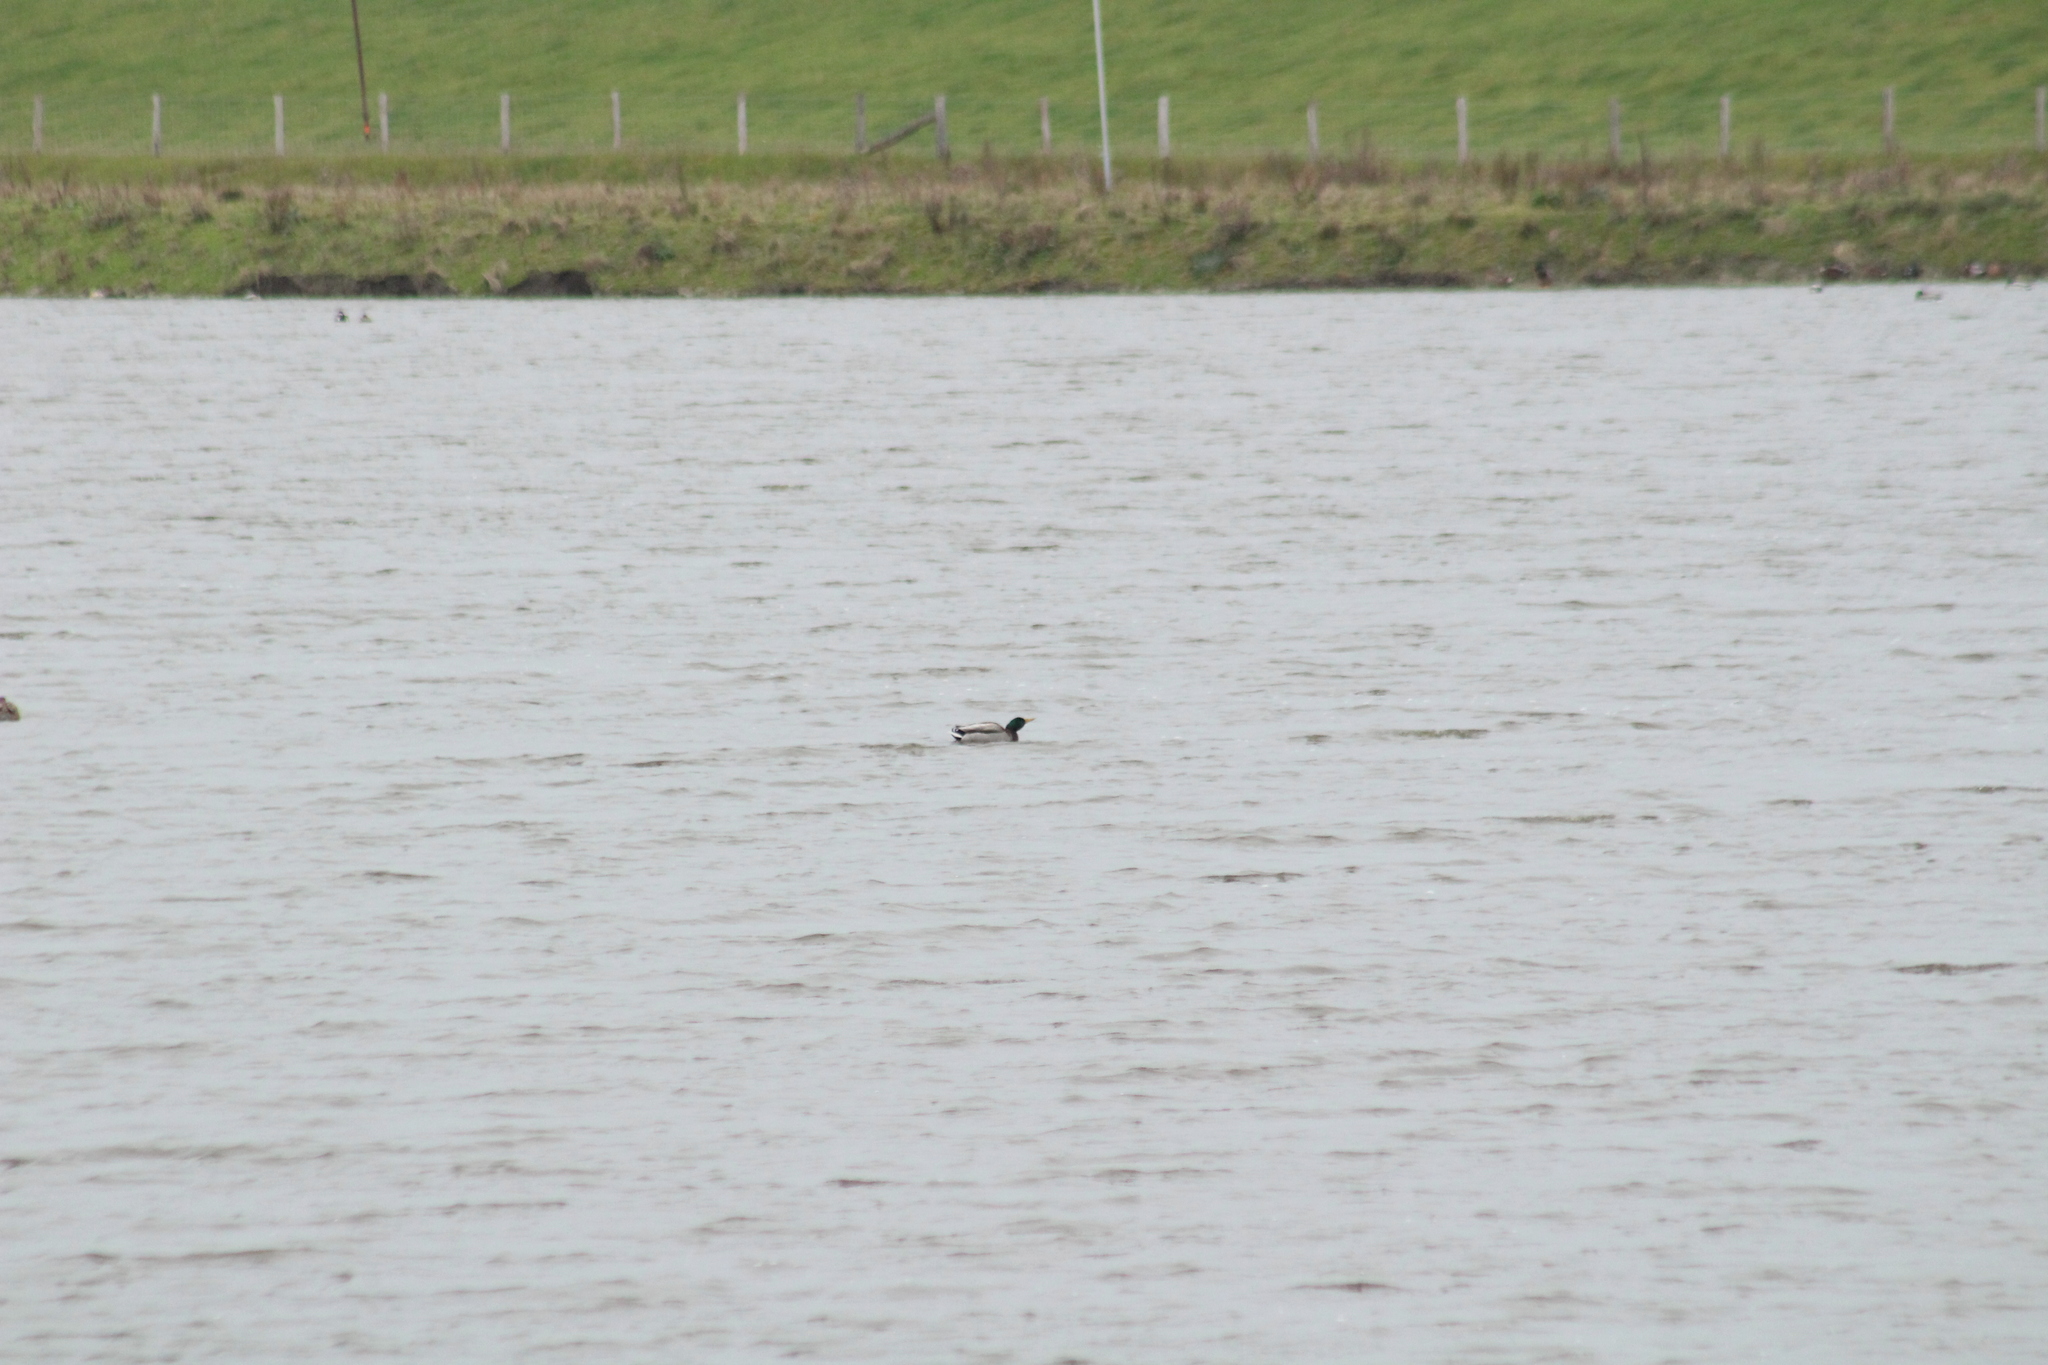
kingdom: Animalia
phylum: Chordata
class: Aves
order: Anseriformes
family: Anatidae
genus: Anas
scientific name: Anas platyrhynchos
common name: Mallard
